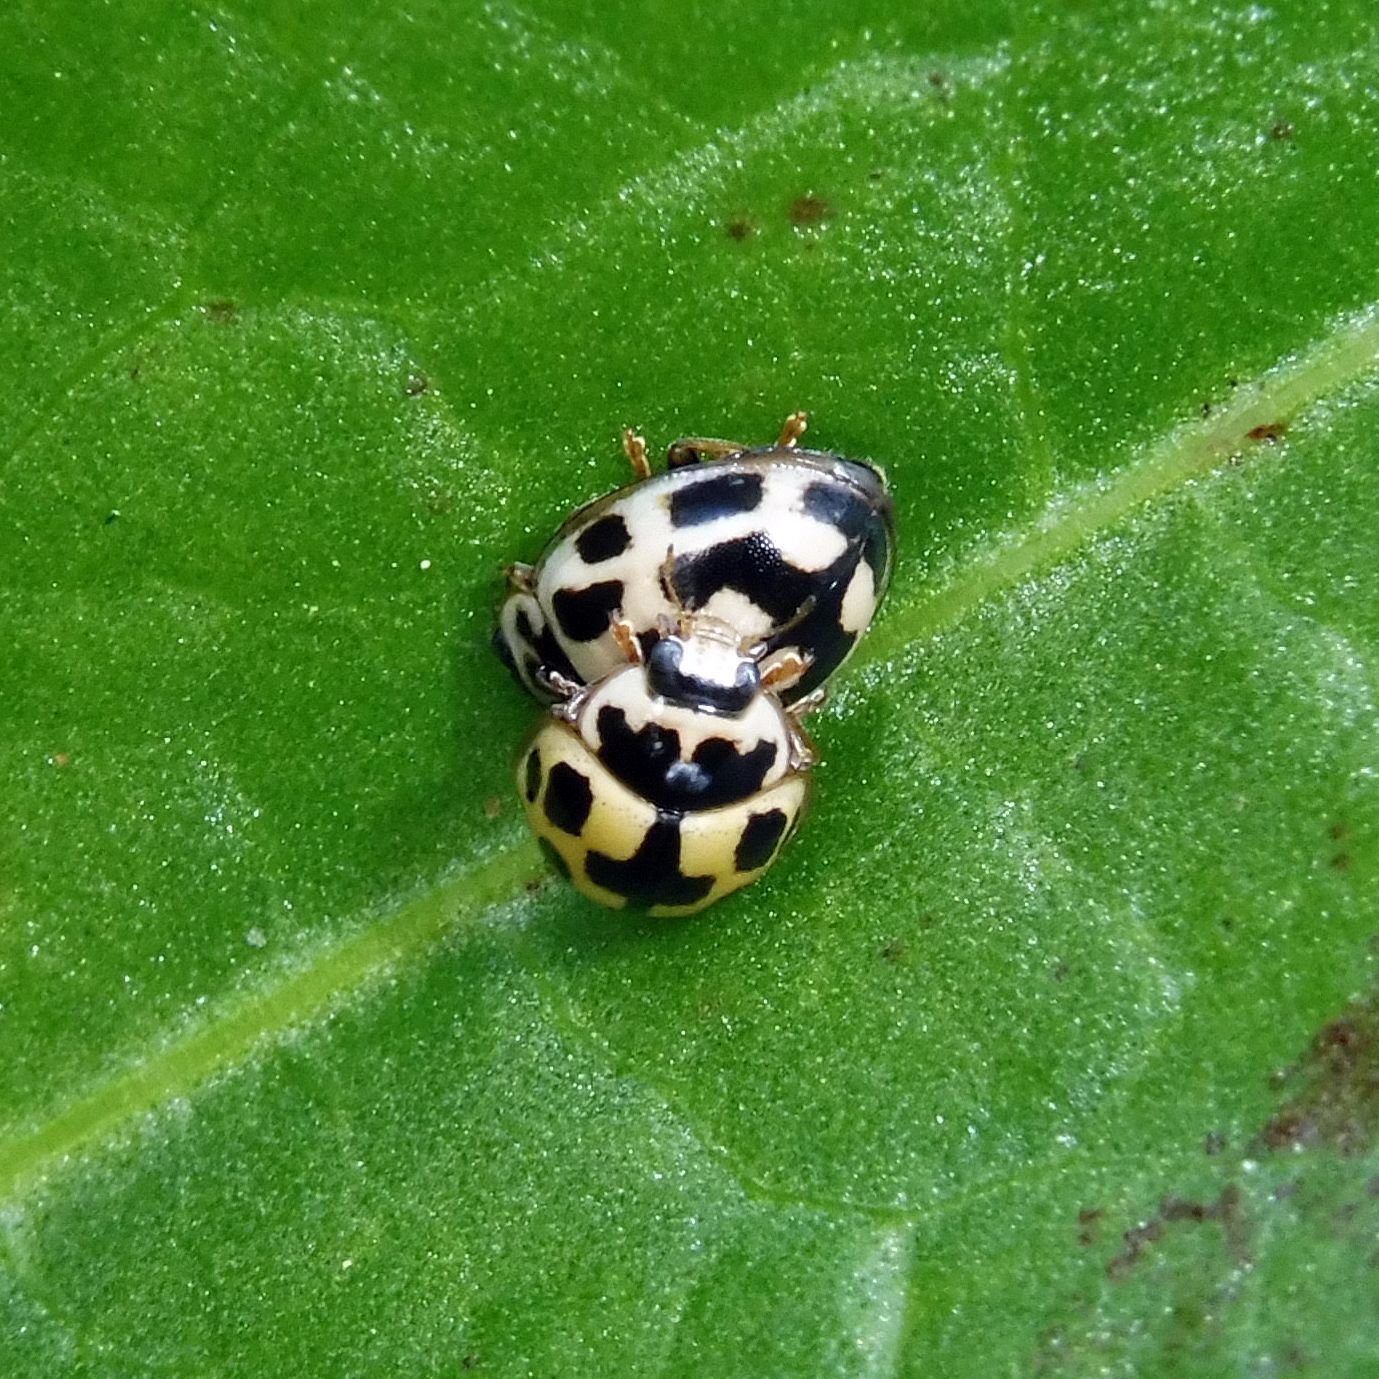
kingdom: Animalia
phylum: Arthropoda
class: Insecta
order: Coleoptera
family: Coccinellidae
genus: Propylaea
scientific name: Propylaea quatuordecimpunctata
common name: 14-spotted ladybird beetle
